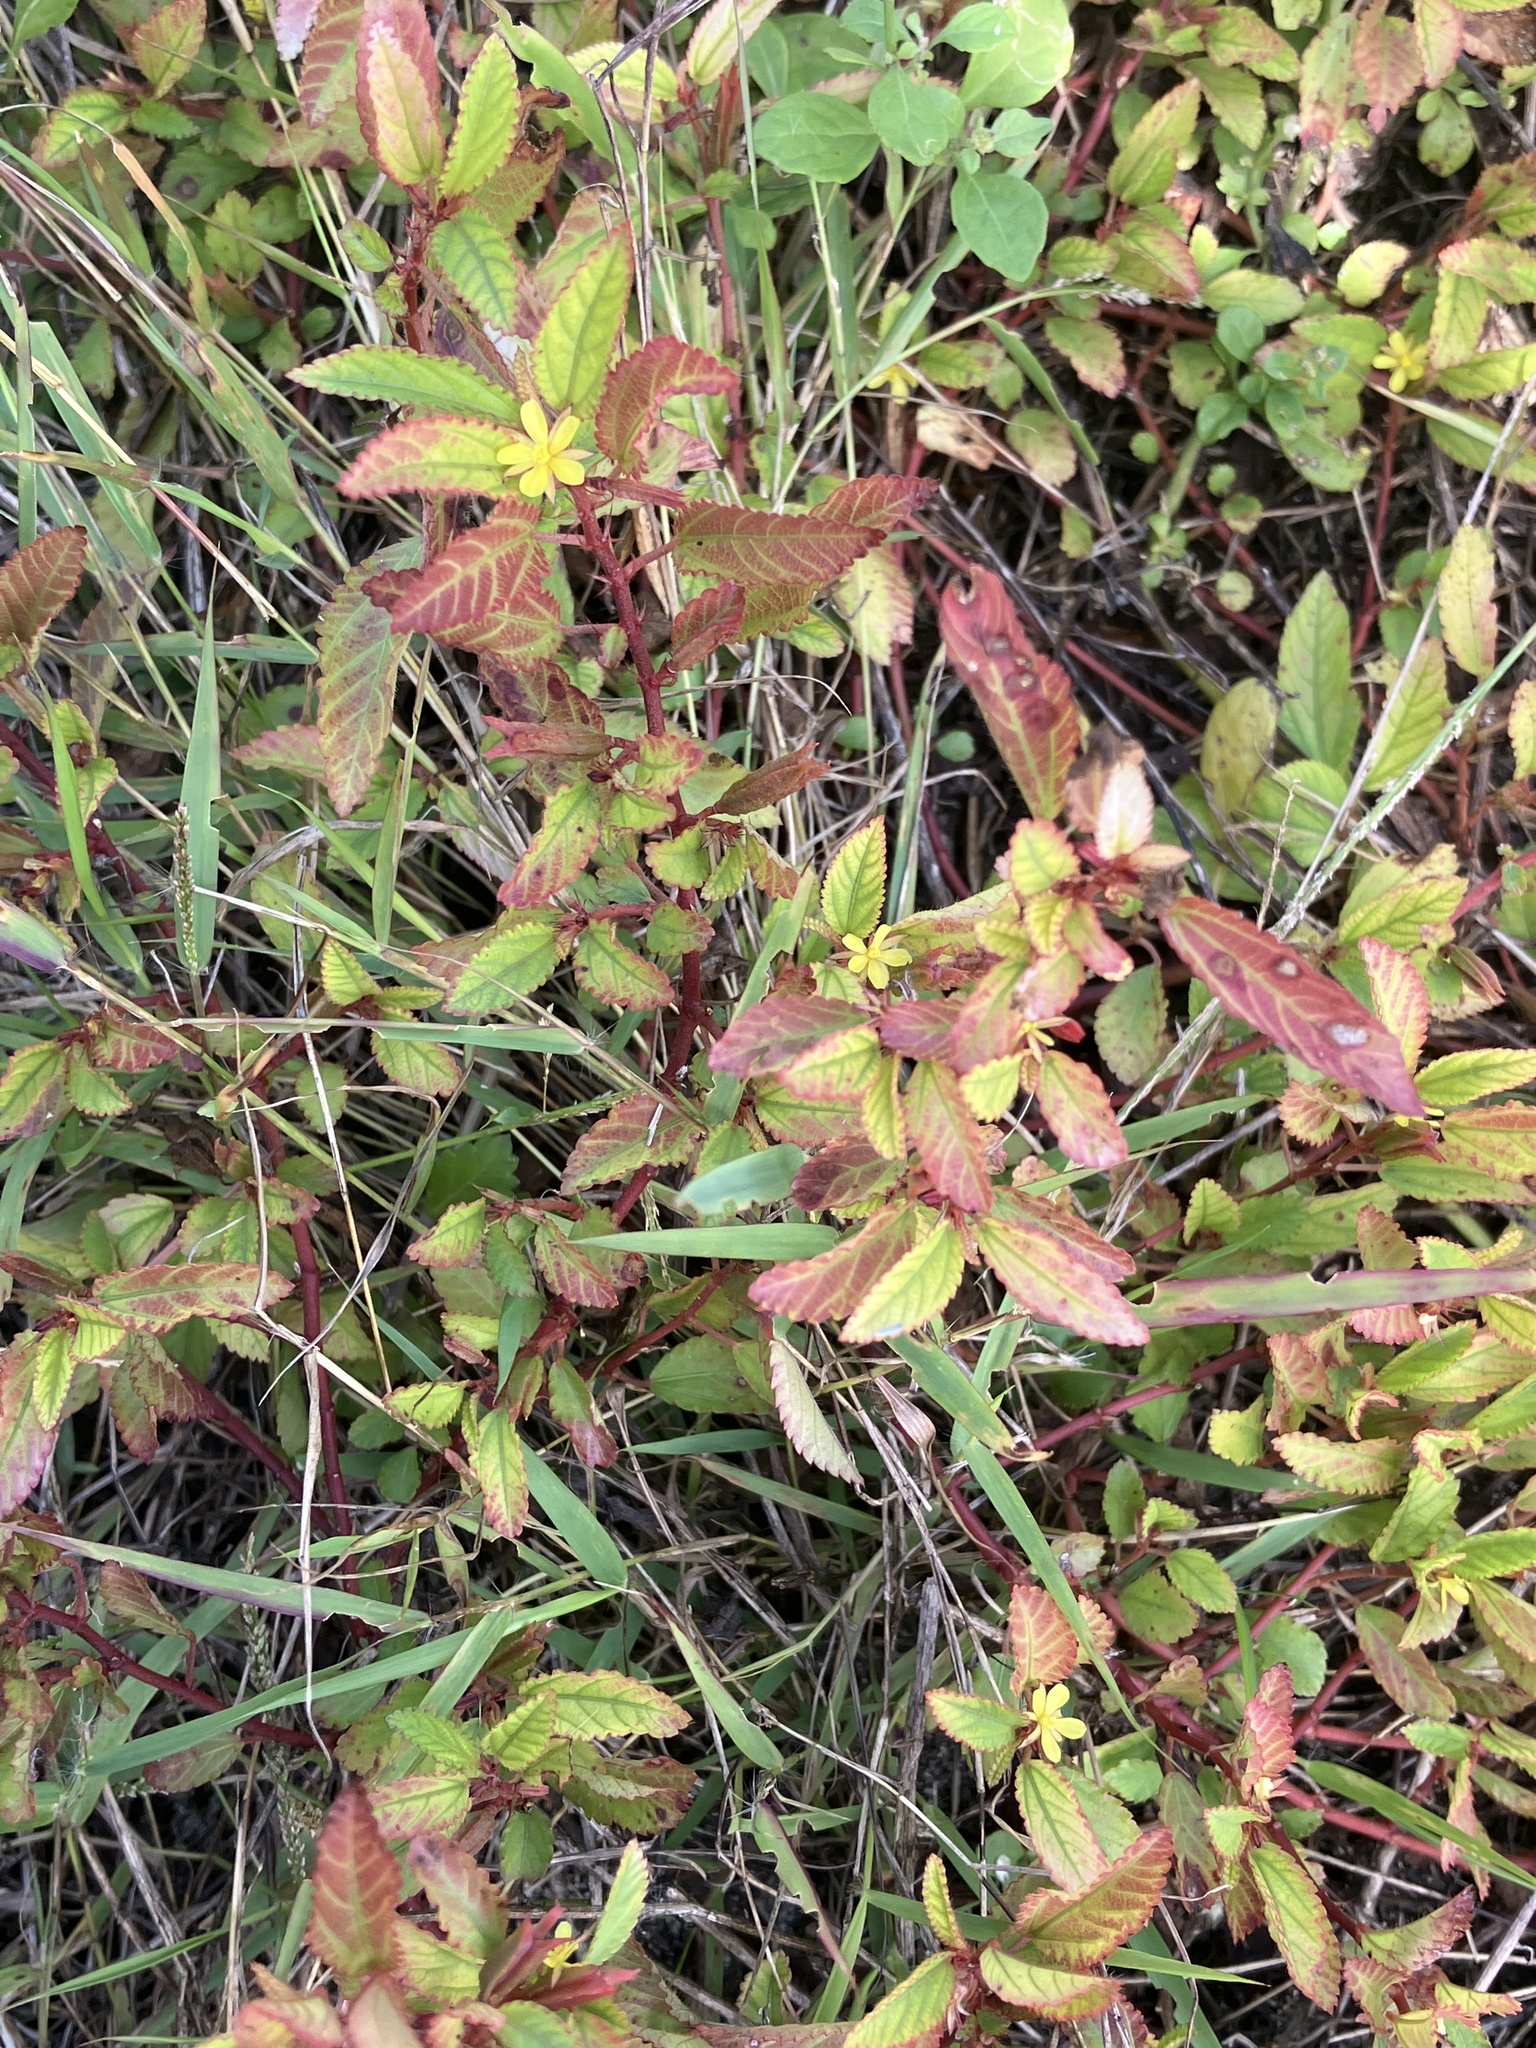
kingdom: Plantae
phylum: Tracheophyta
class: Magnoliopsida
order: Malvales
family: Malvaceae
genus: Corchorus
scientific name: Corchorus aestuans
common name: Jute
